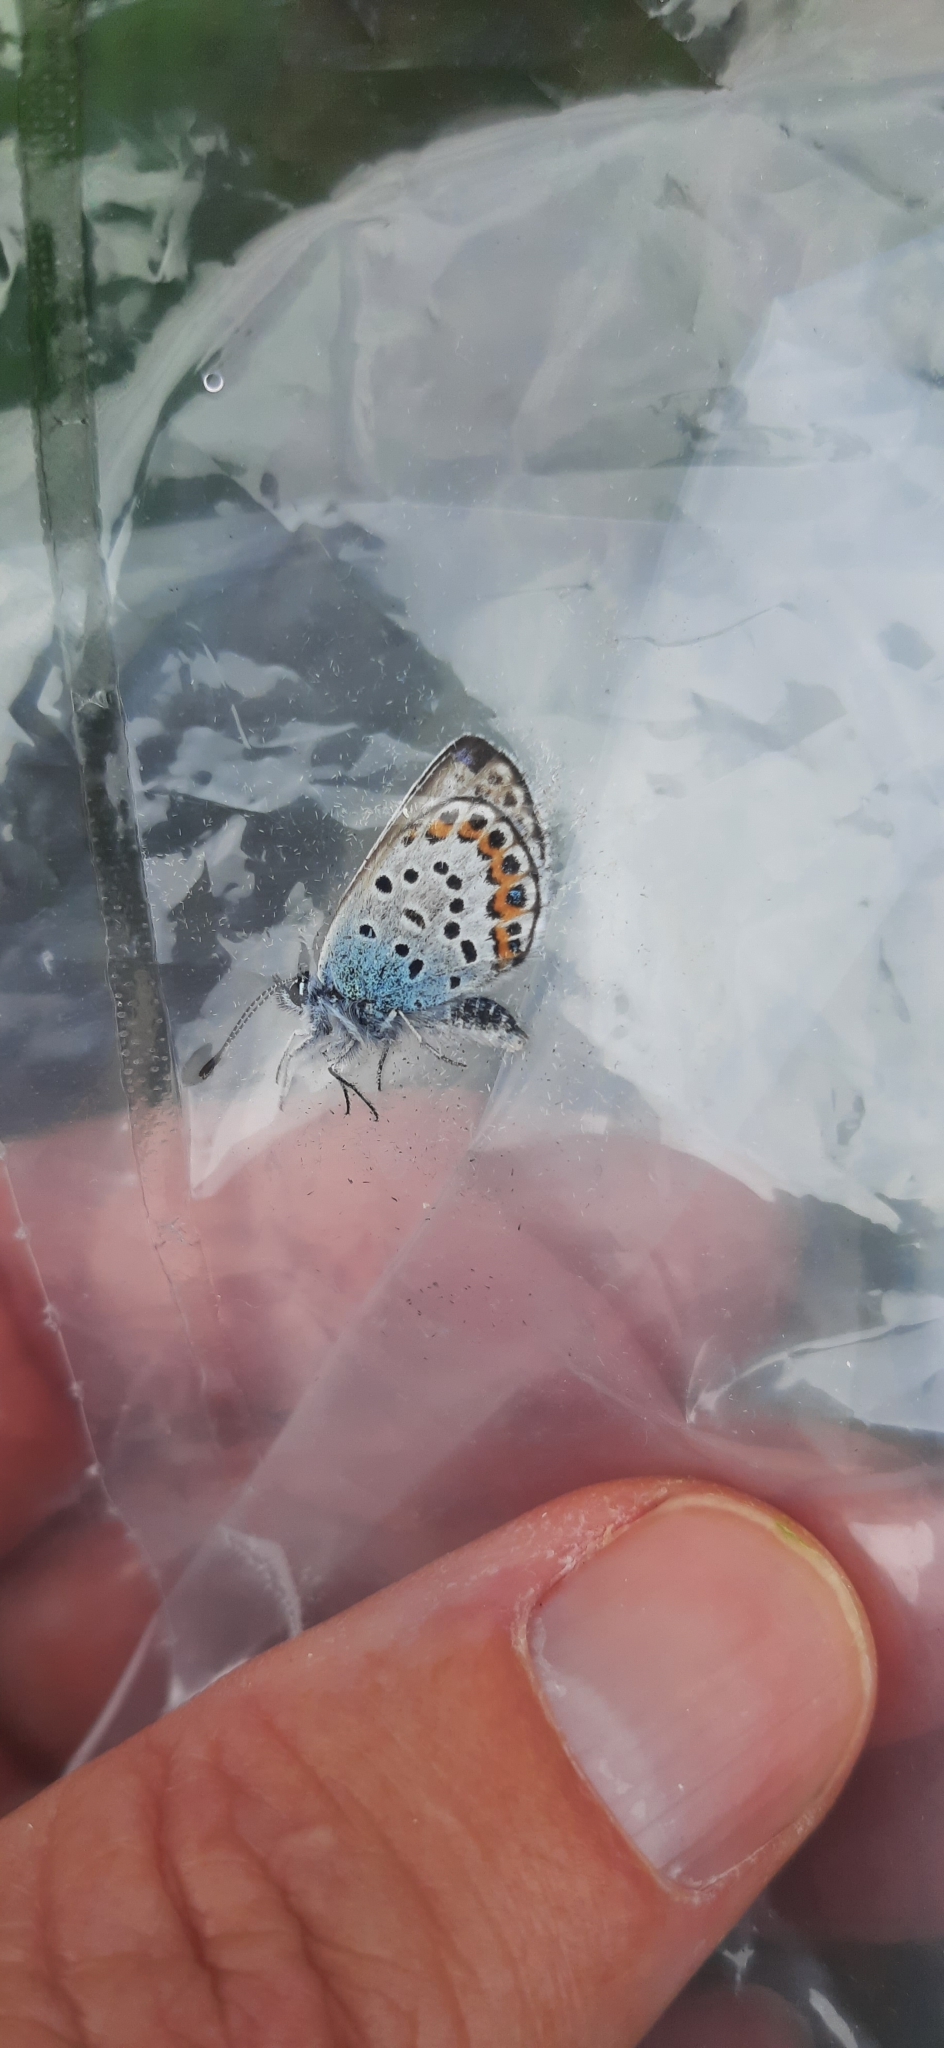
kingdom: Animalia
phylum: Arthropoda
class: Insecta
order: Lepidoptera
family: Lycaenidae
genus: Plebejus
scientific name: Plebejus argus
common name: Silver-studded blue
